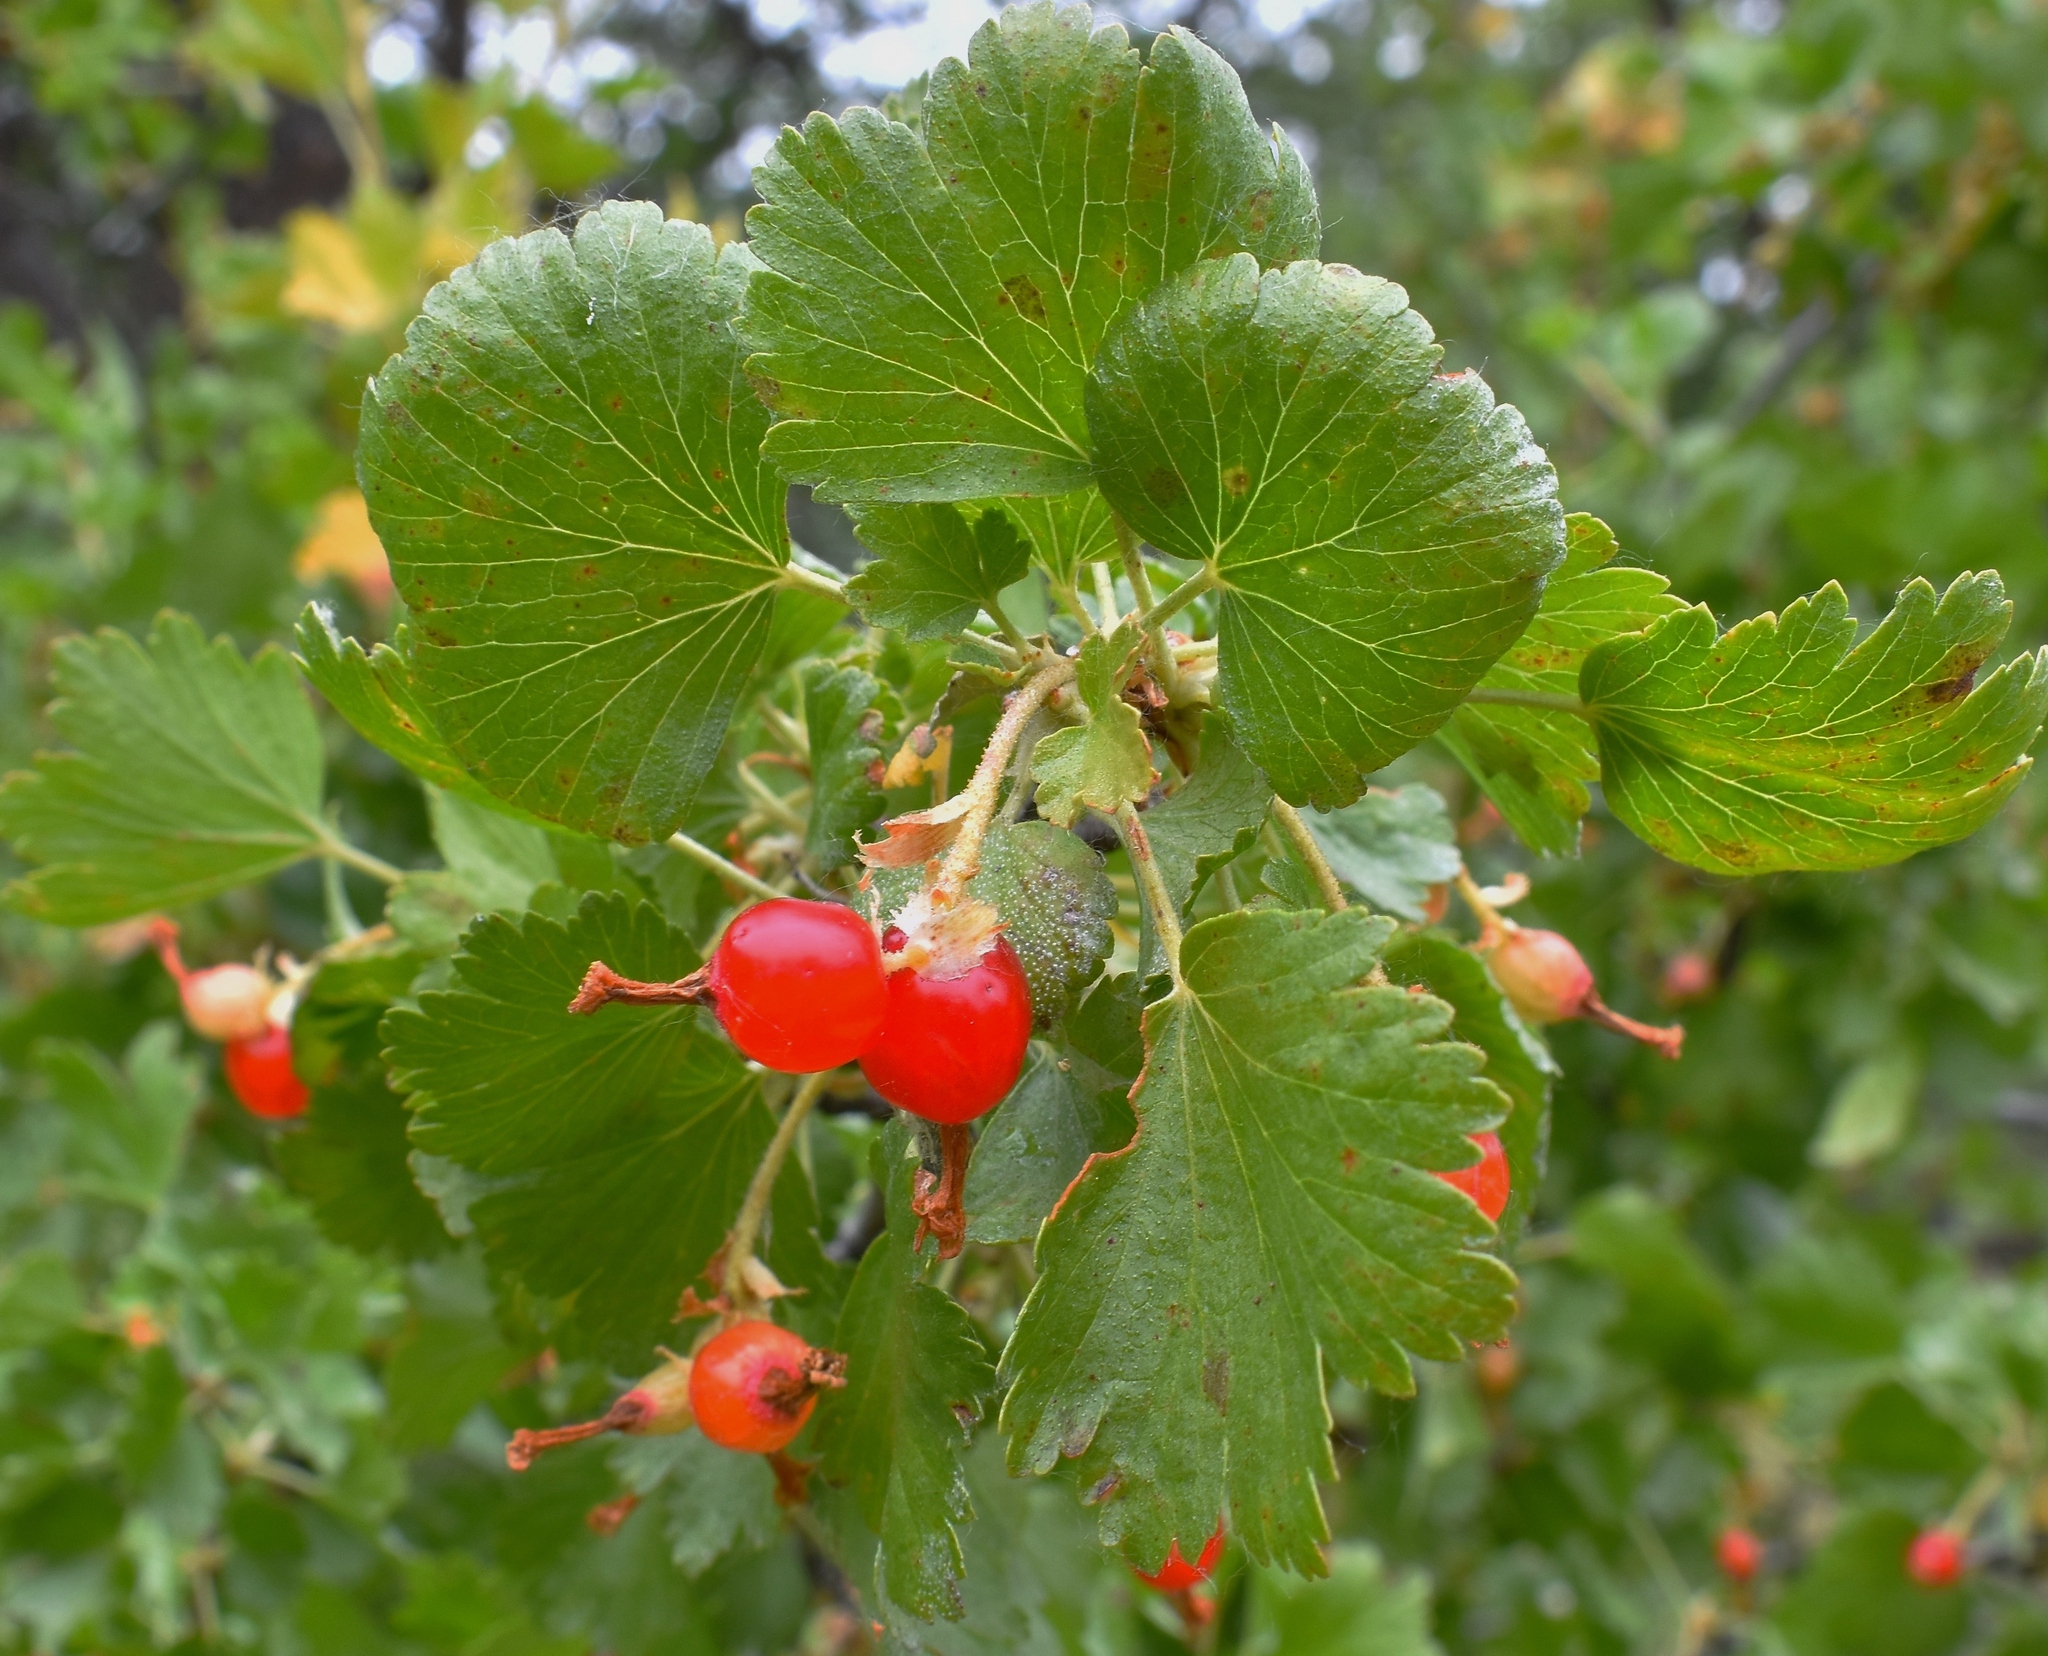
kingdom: Plantae
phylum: Tracheophyta
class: Magnoliopsida
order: Saxifragales
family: Grossulariaceae
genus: Ribes
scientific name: Ribes cereum
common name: Wax currant
